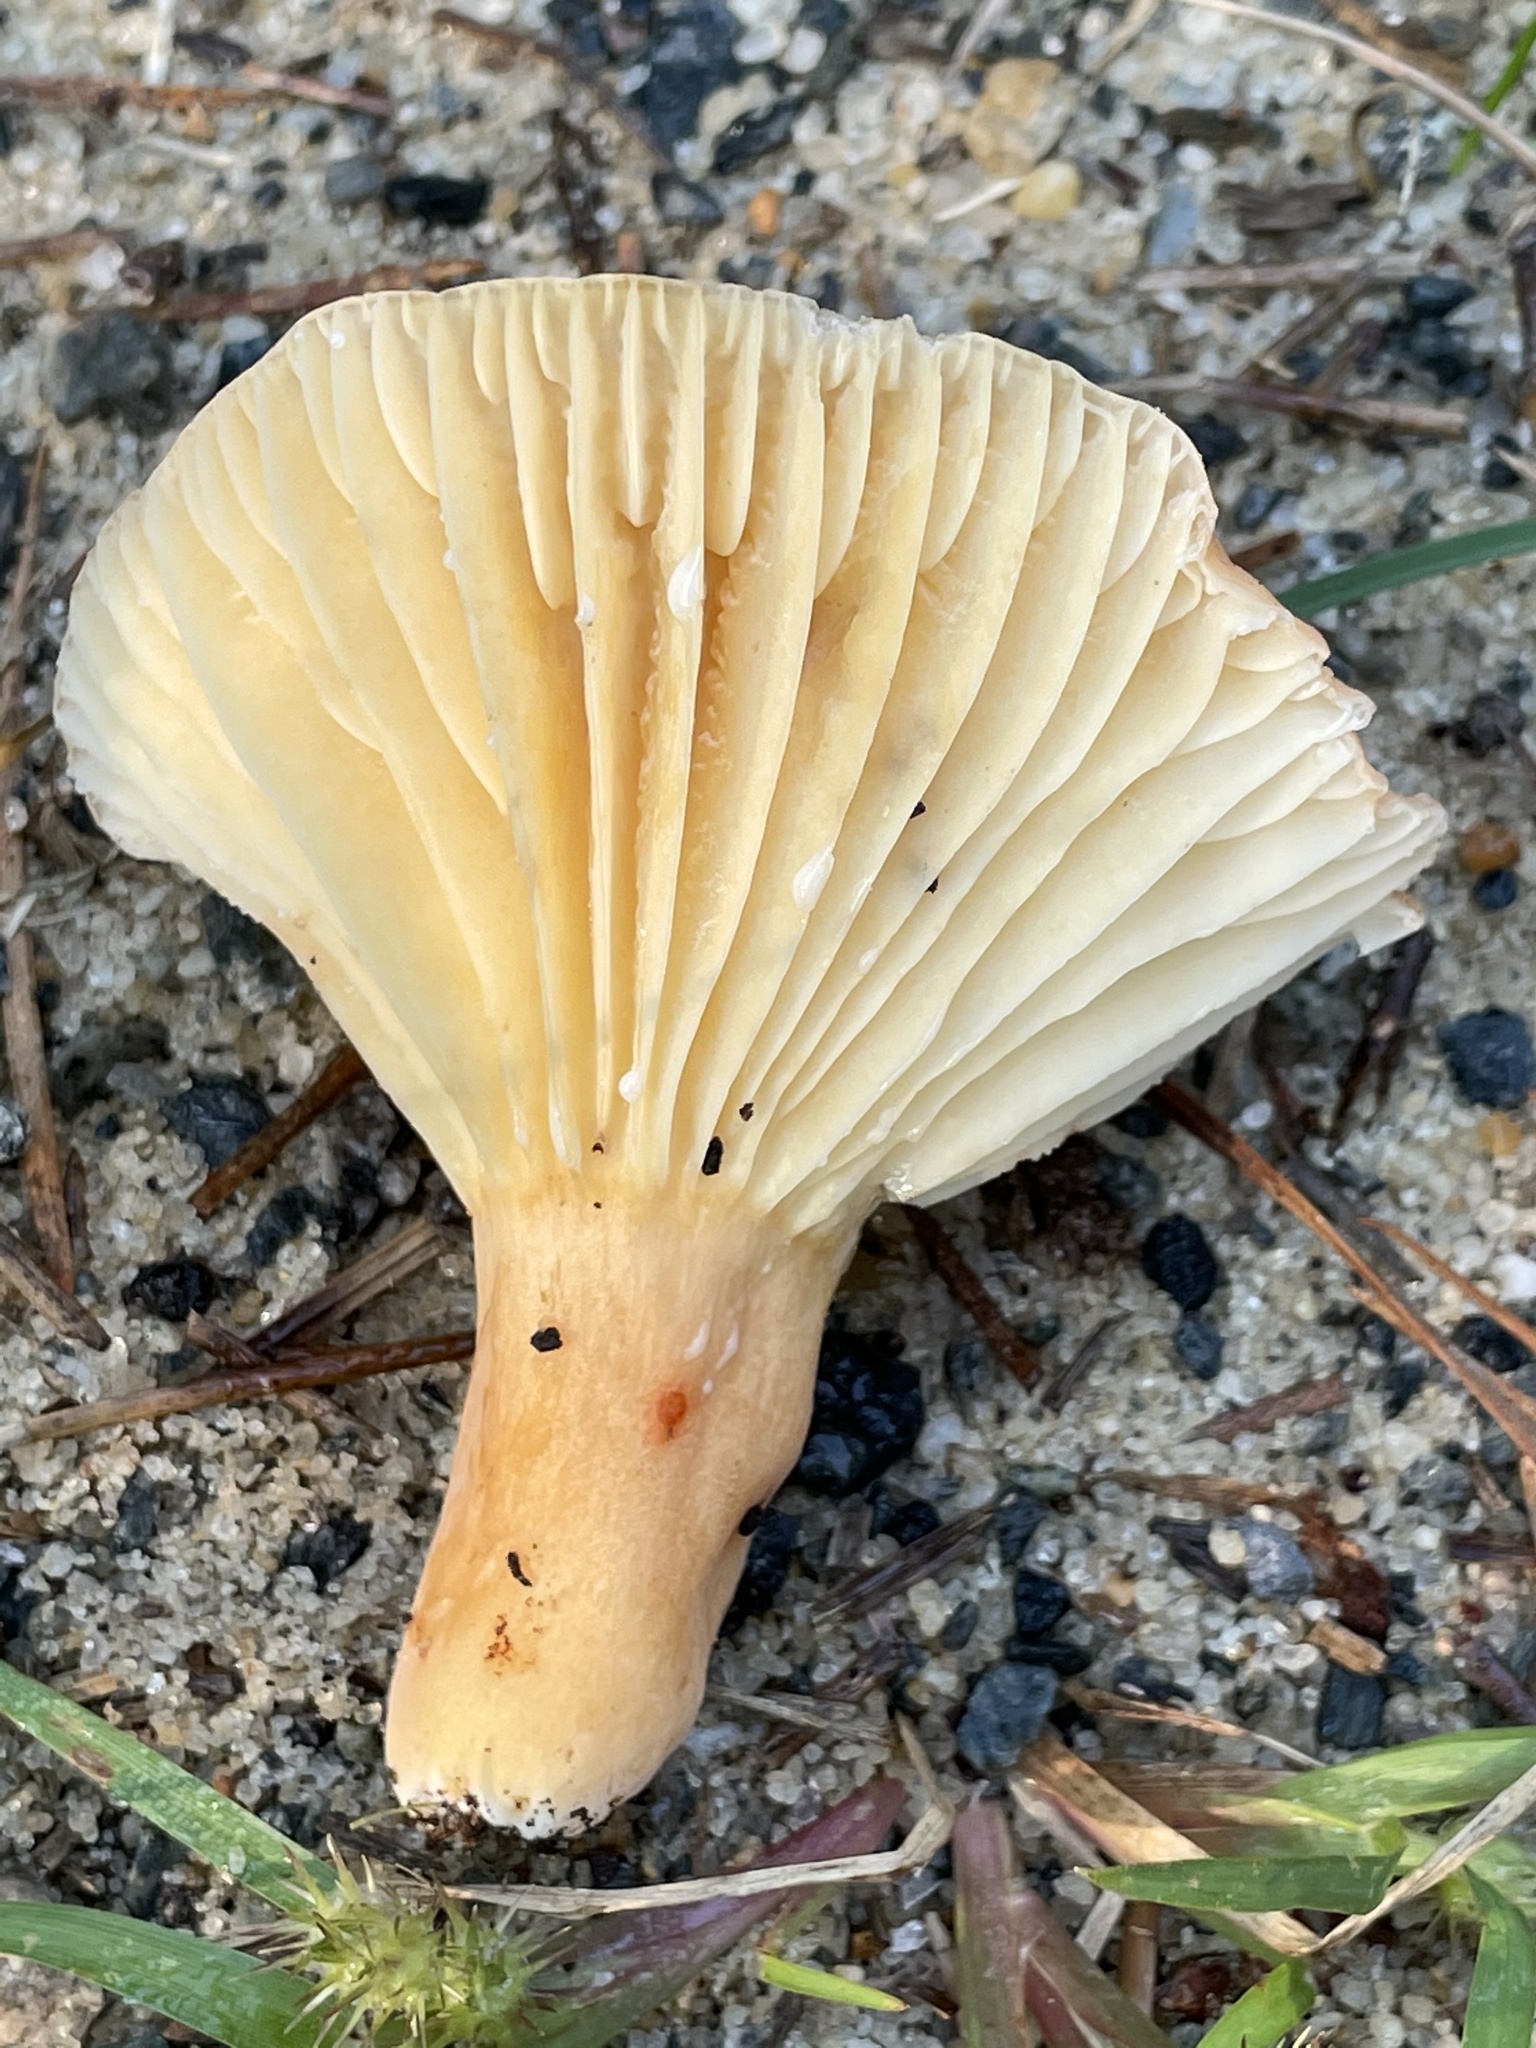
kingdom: Fungi
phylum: Basidiomycota
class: Agaricomycetes
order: Russulales
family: Russulaceae
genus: Lactarius
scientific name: Lactarius hygrophoroides
